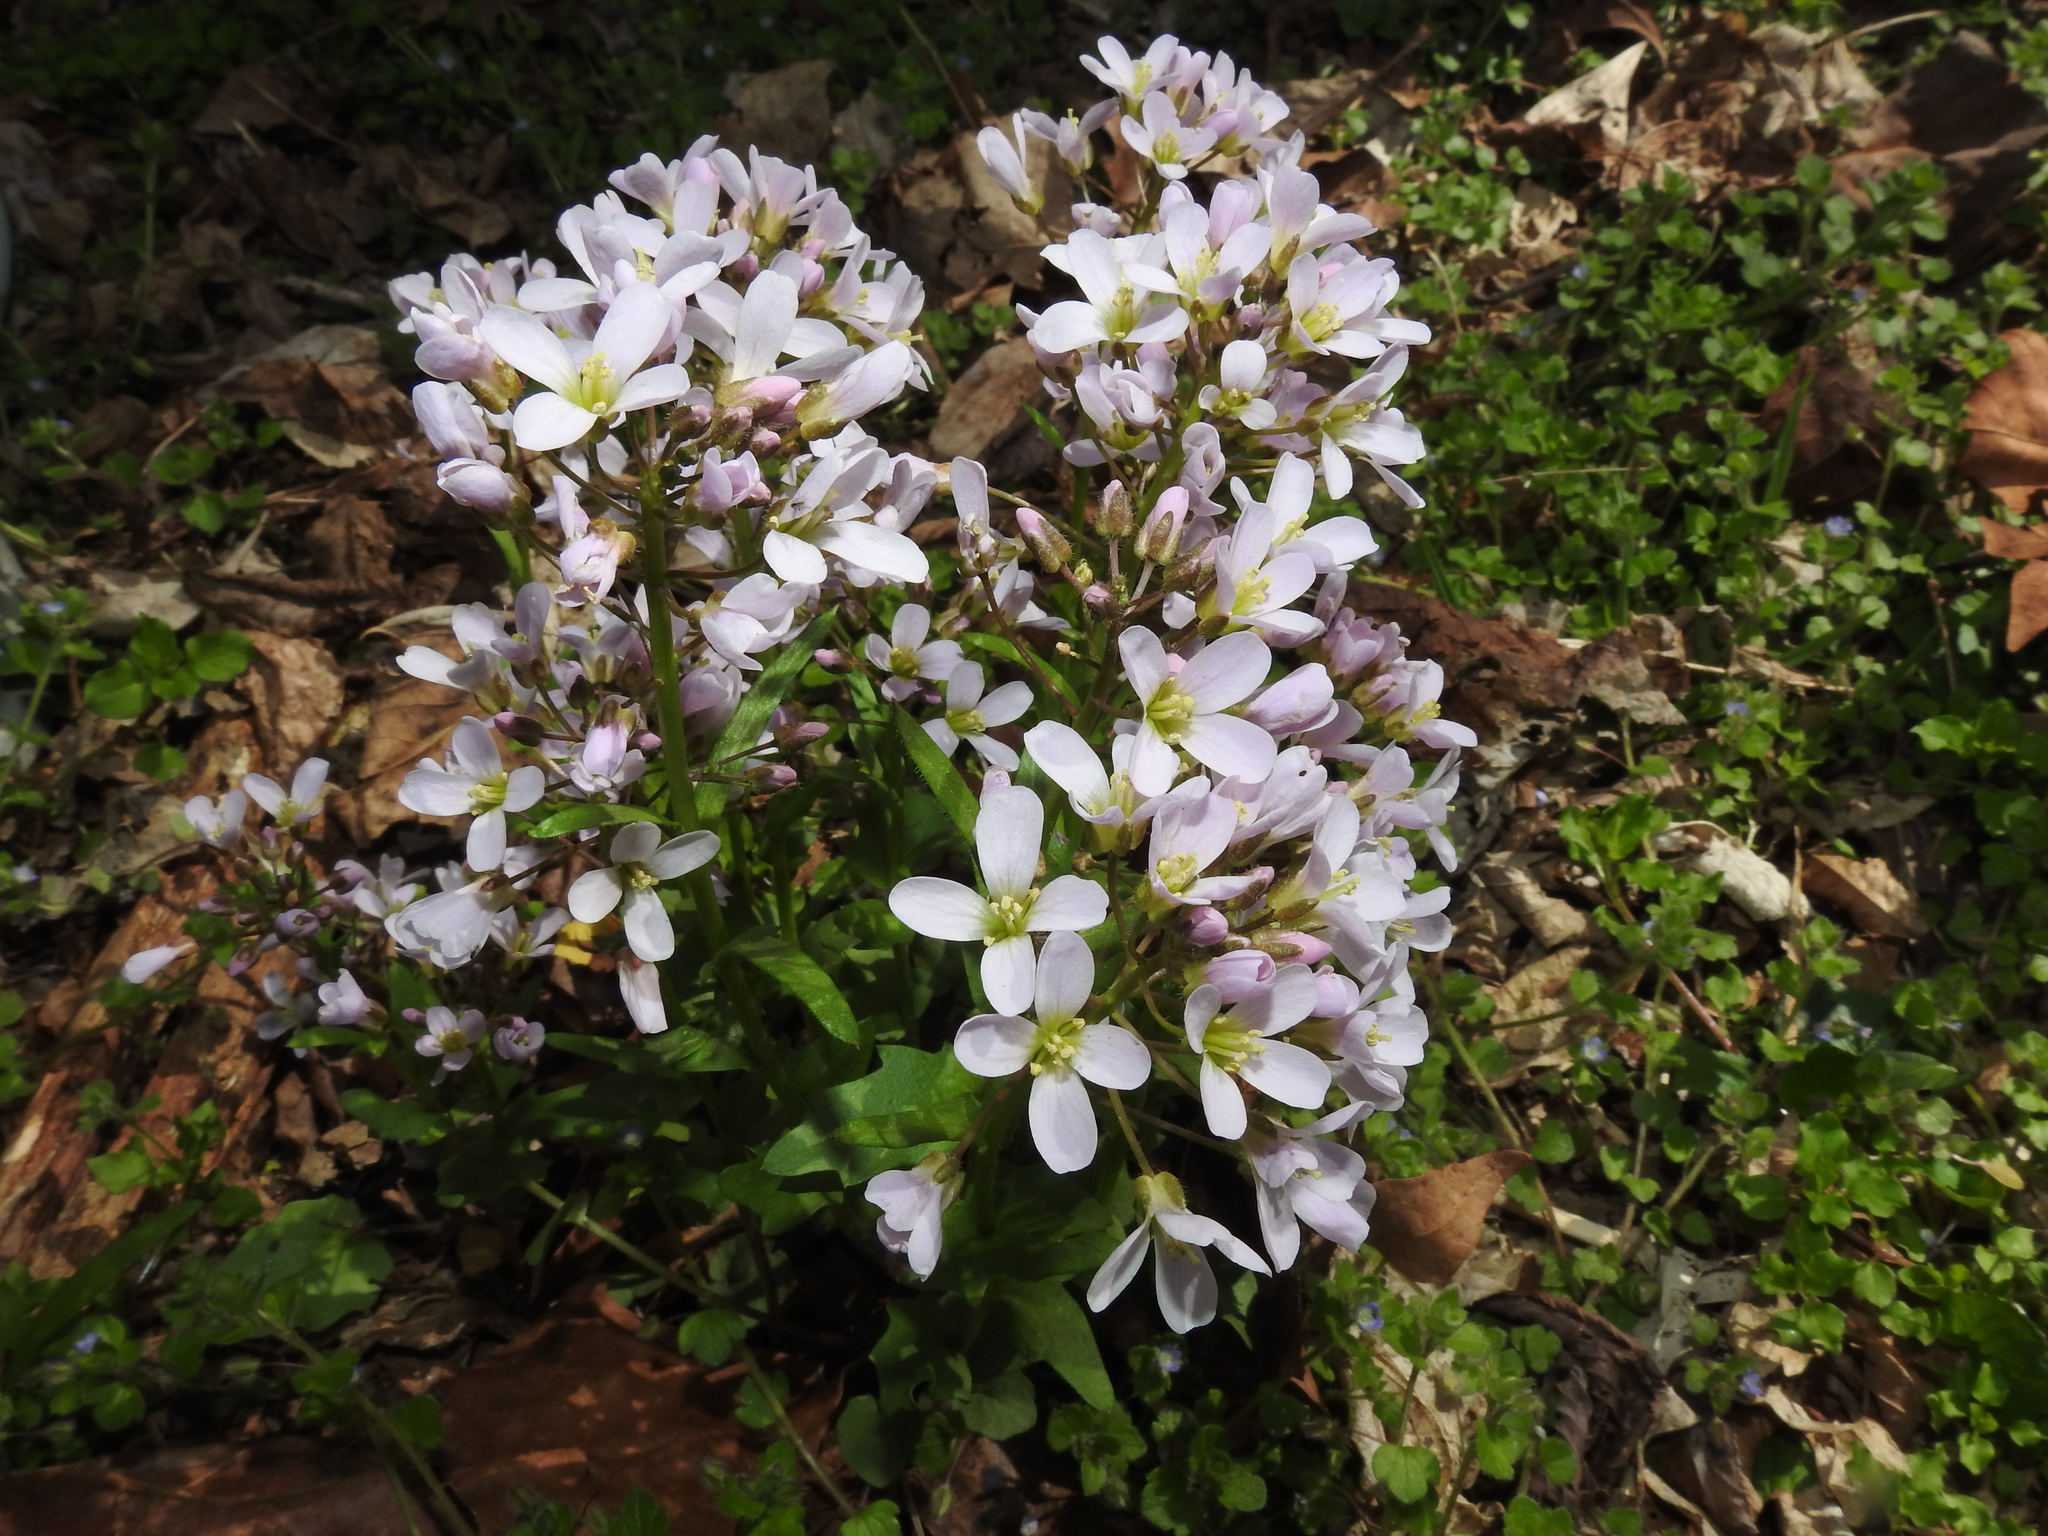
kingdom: Plantae
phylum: Tracheophyta
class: Magnoliopsida
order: Brassicales
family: Brassicaceae
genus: Cardamine
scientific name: Cardamine douglassii
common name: Purple cress
